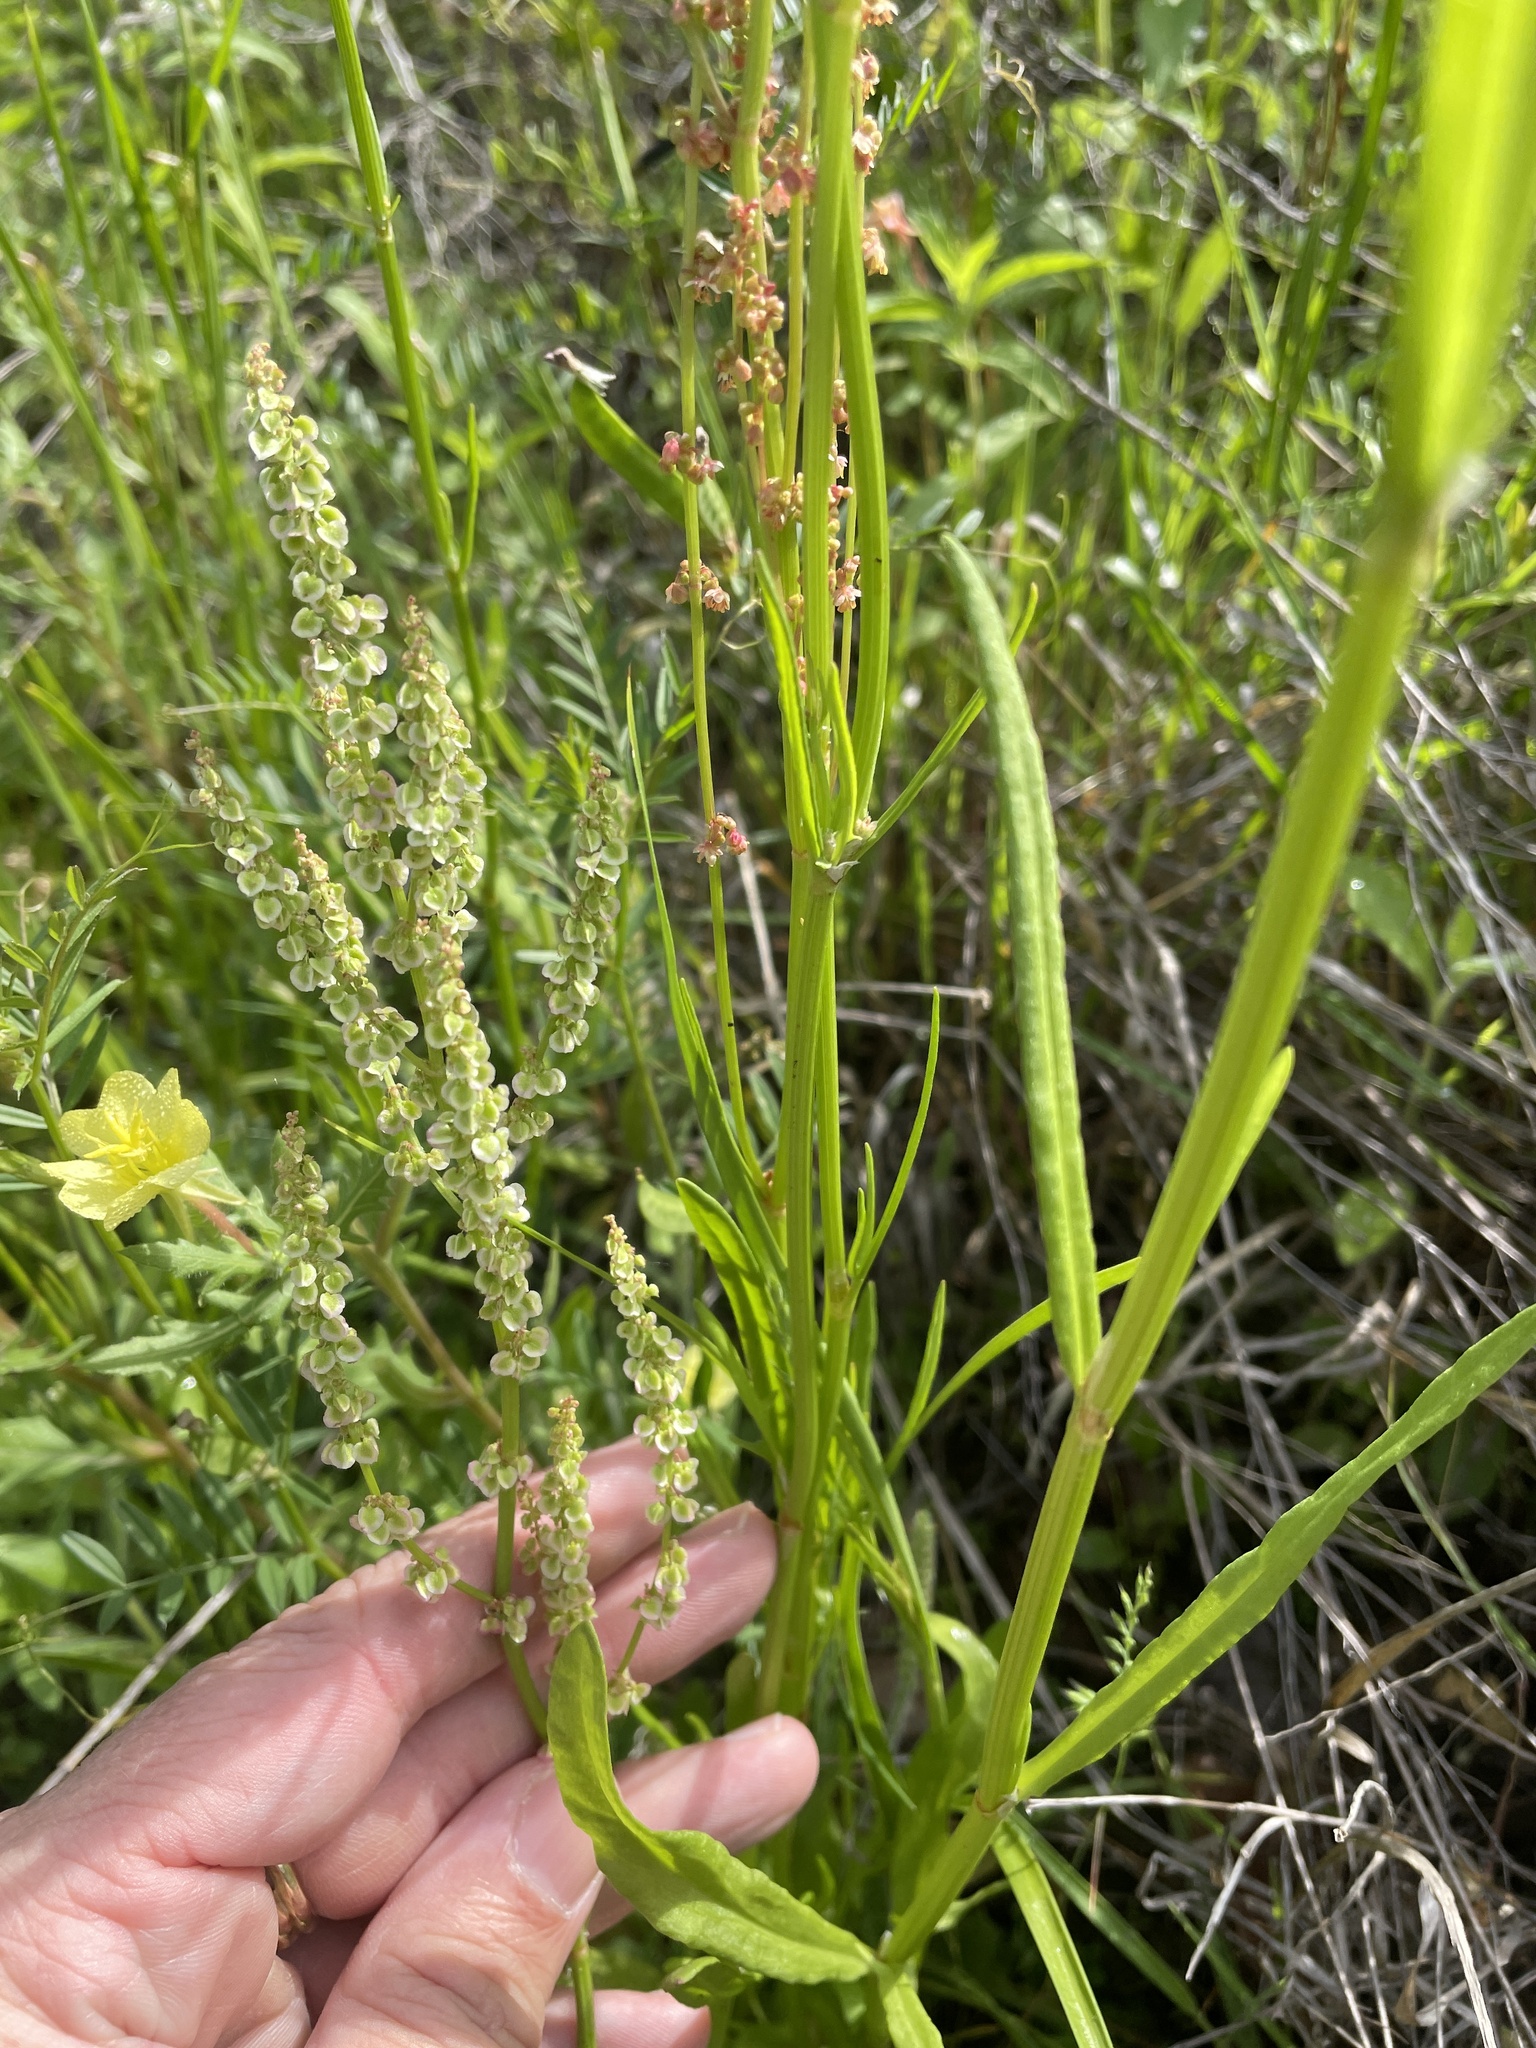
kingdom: Plantae
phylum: Tracheophyta
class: Magnoliopsida
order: Caryophyllales
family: Polygonaceae
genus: Rumex
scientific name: Rumex hastatulus
